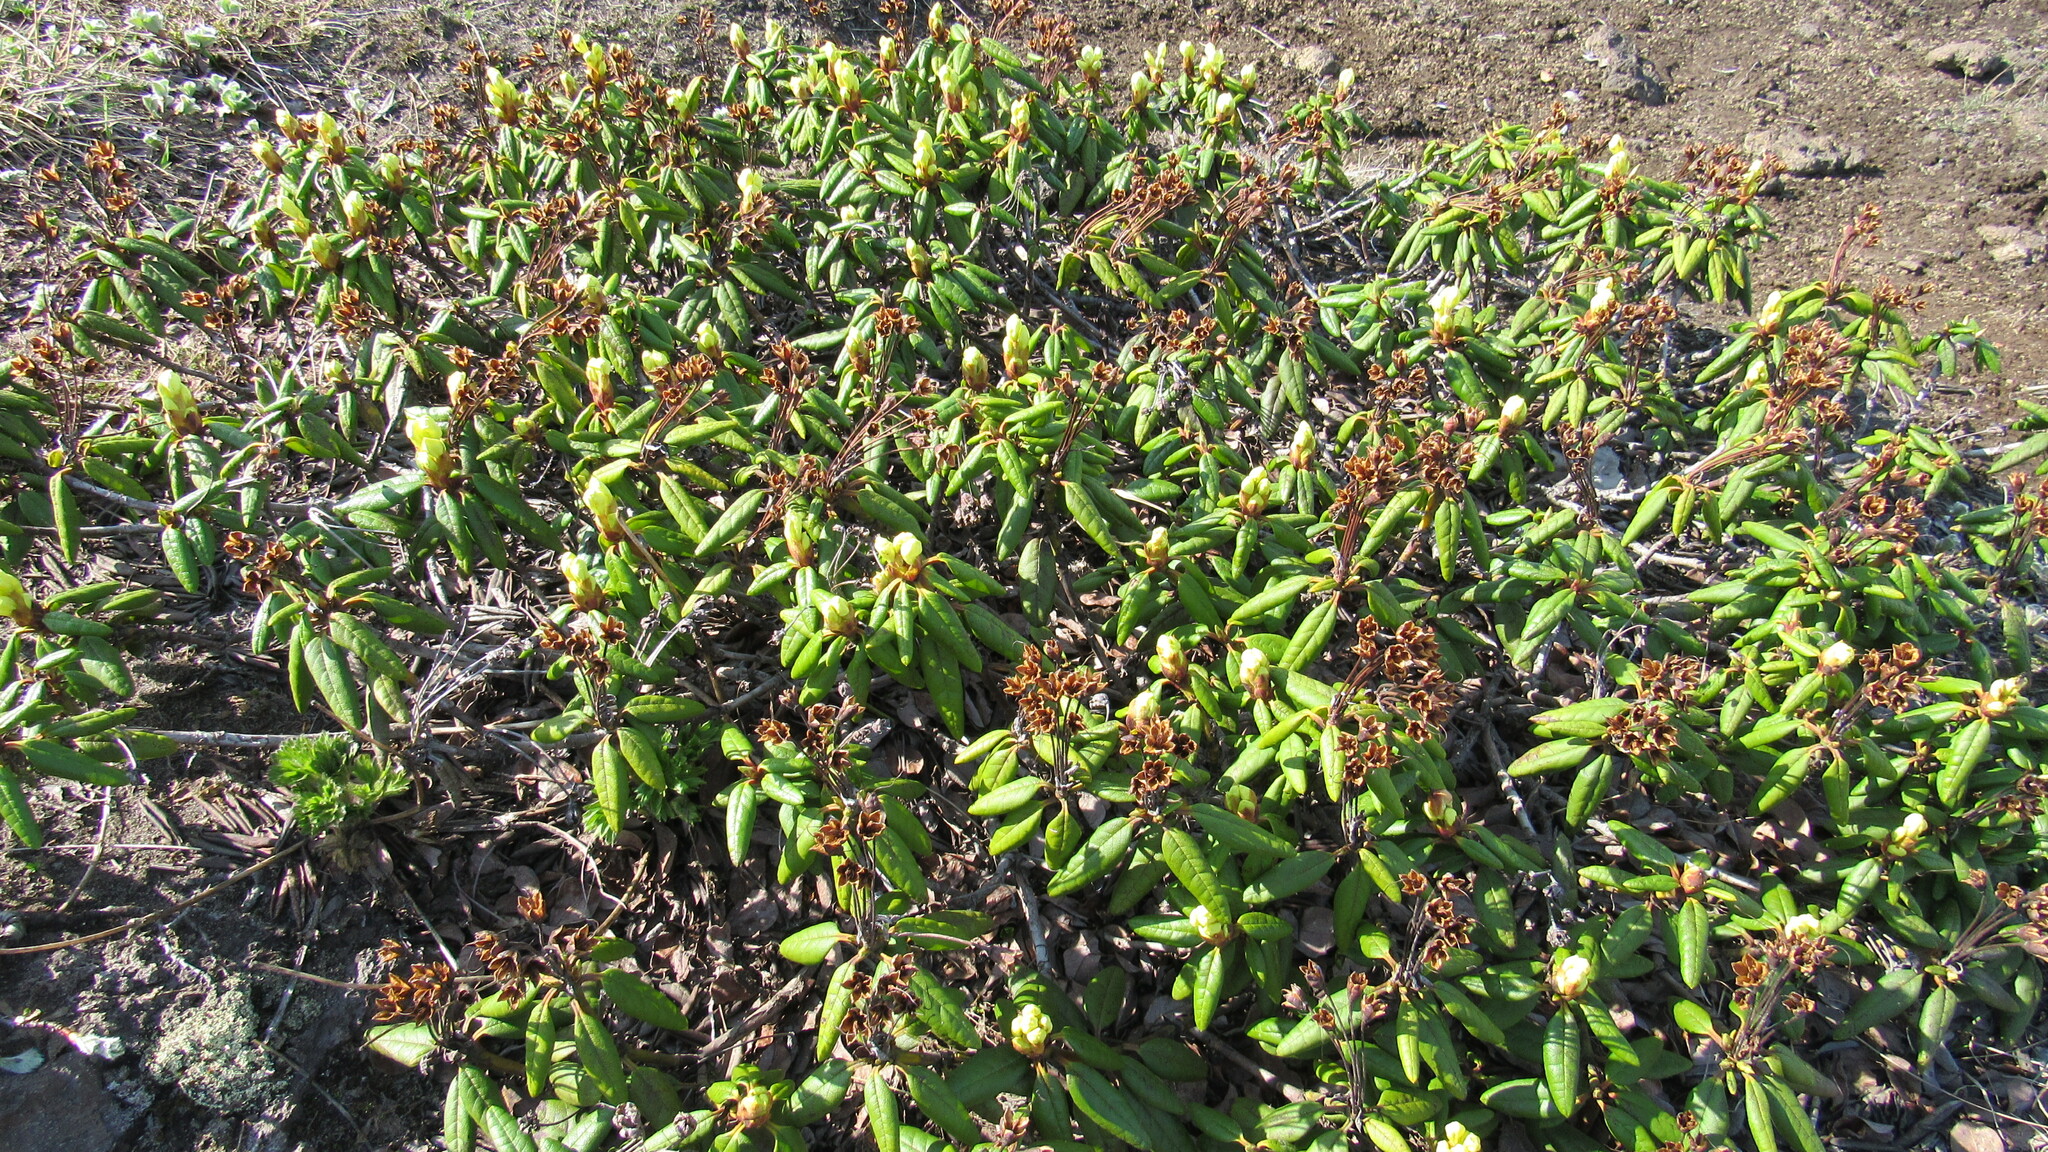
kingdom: Plantae
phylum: Tracheophyta
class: Magnoliopsida
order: Ericales
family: Ericaceae
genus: Rhododendron
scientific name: Rhododendron aureum
